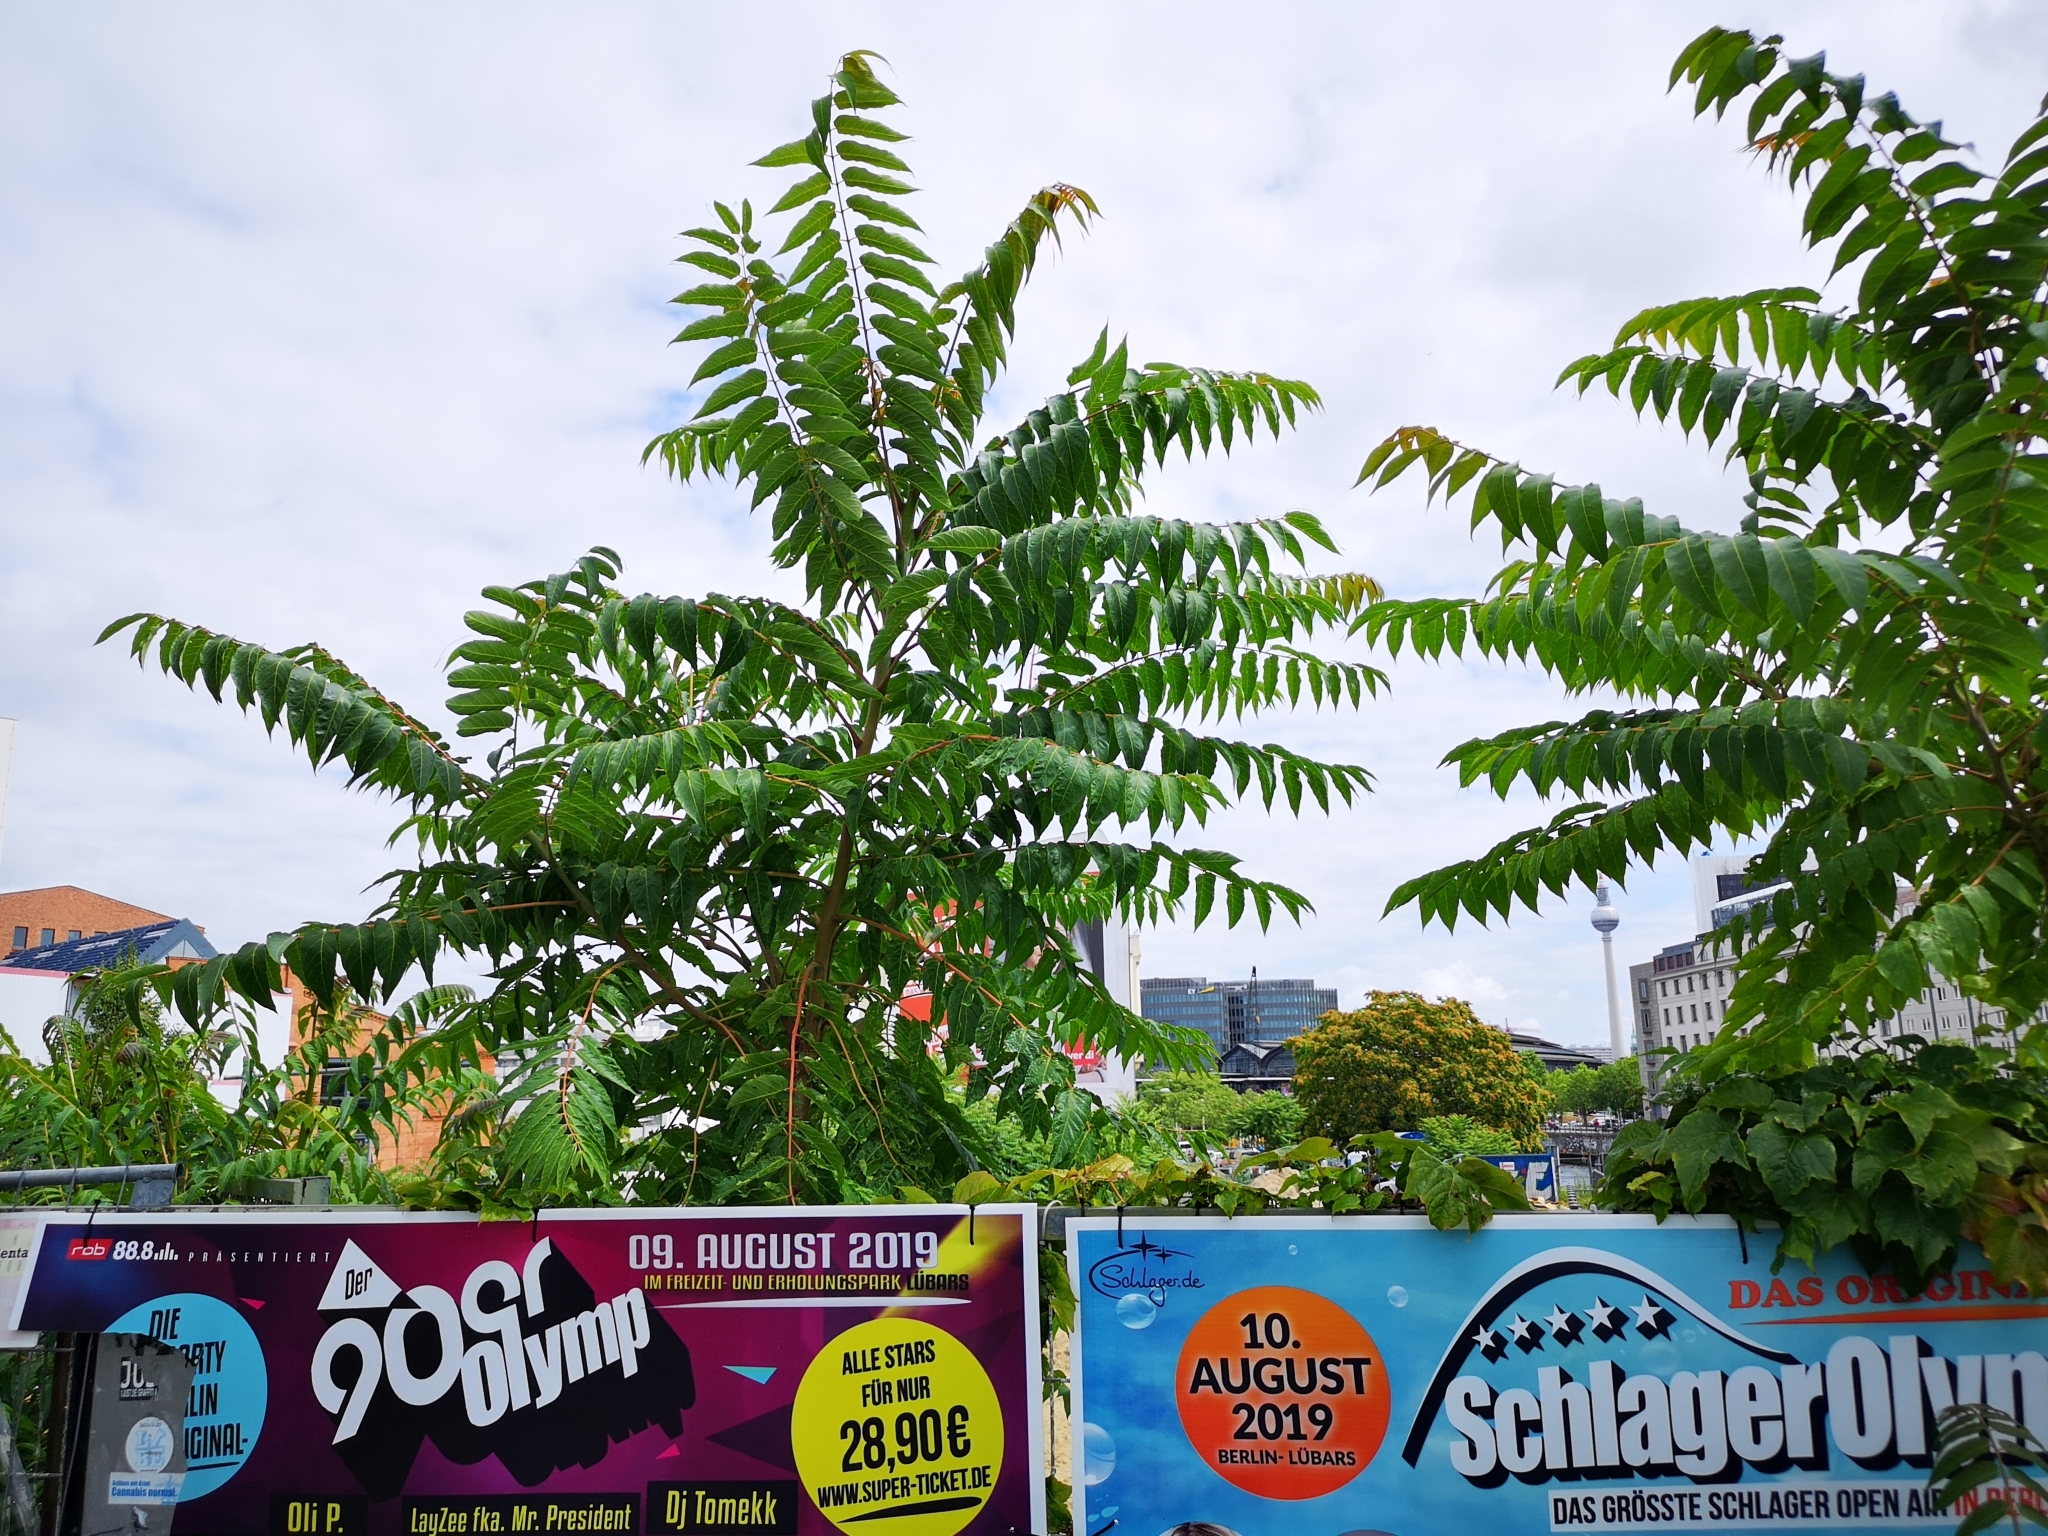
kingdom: Plantae
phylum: Tracheophyta
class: Magnoliopsida
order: Sapindales
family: Simaroubaceae
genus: Ailanthus
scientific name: Ailanthus altissima
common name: Tree-of-heaven
